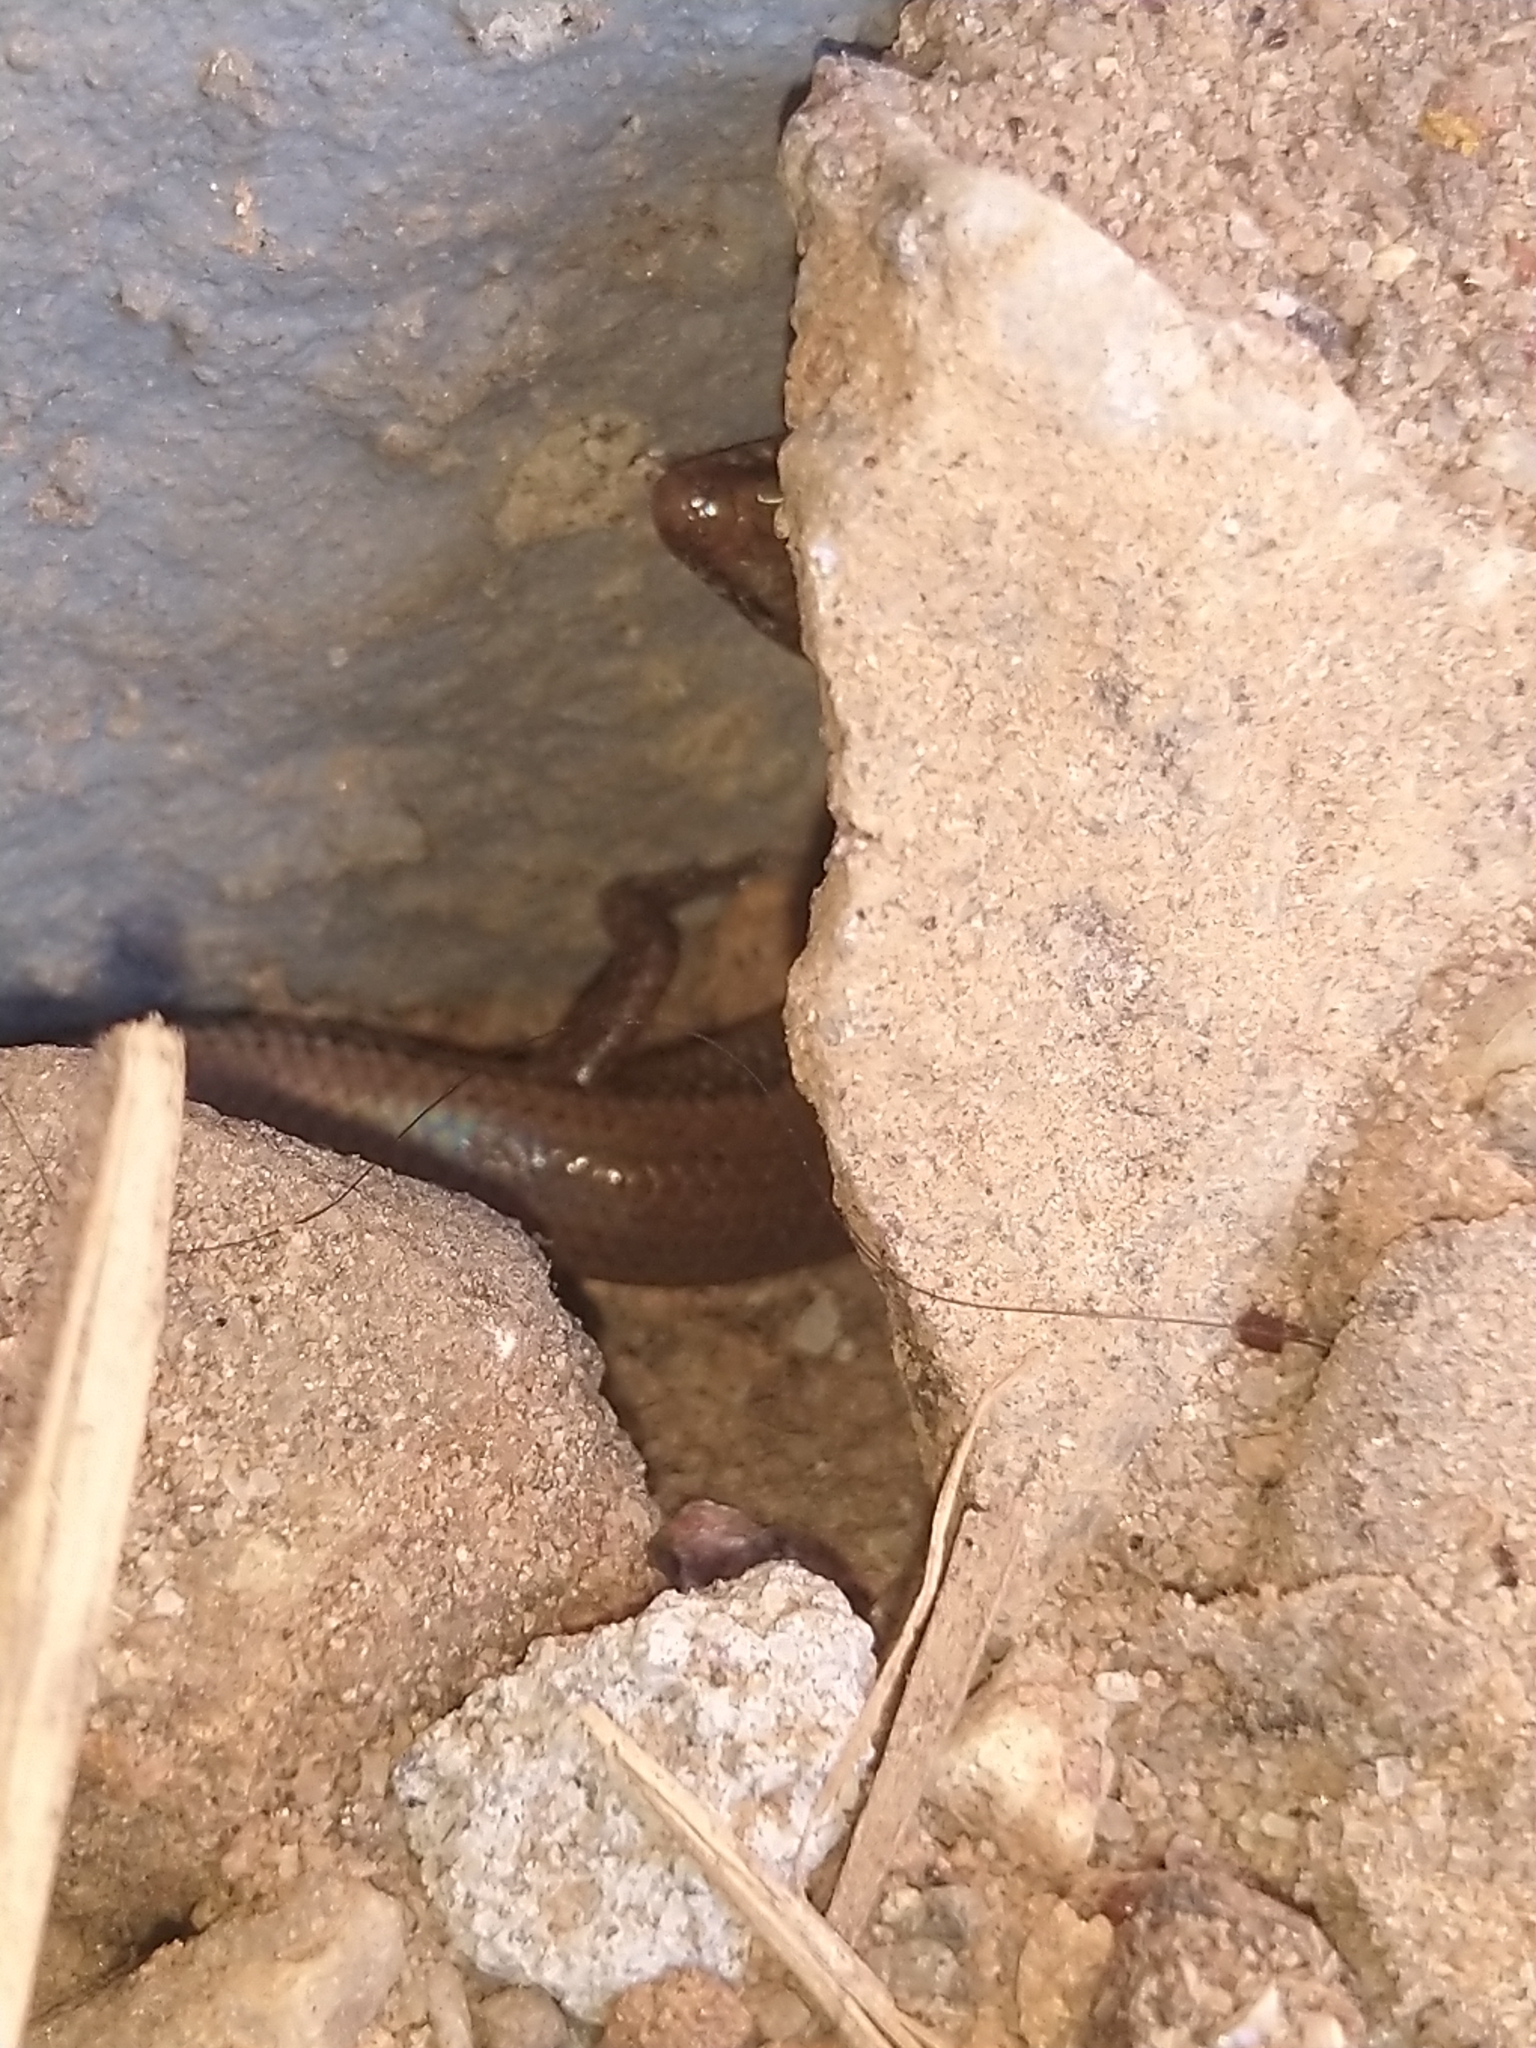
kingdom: Animalia
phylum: Chordata
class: Squamata
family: Scincidae
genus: Riopa
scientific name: Riopa albopunctata
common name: White-spotted supple skink
